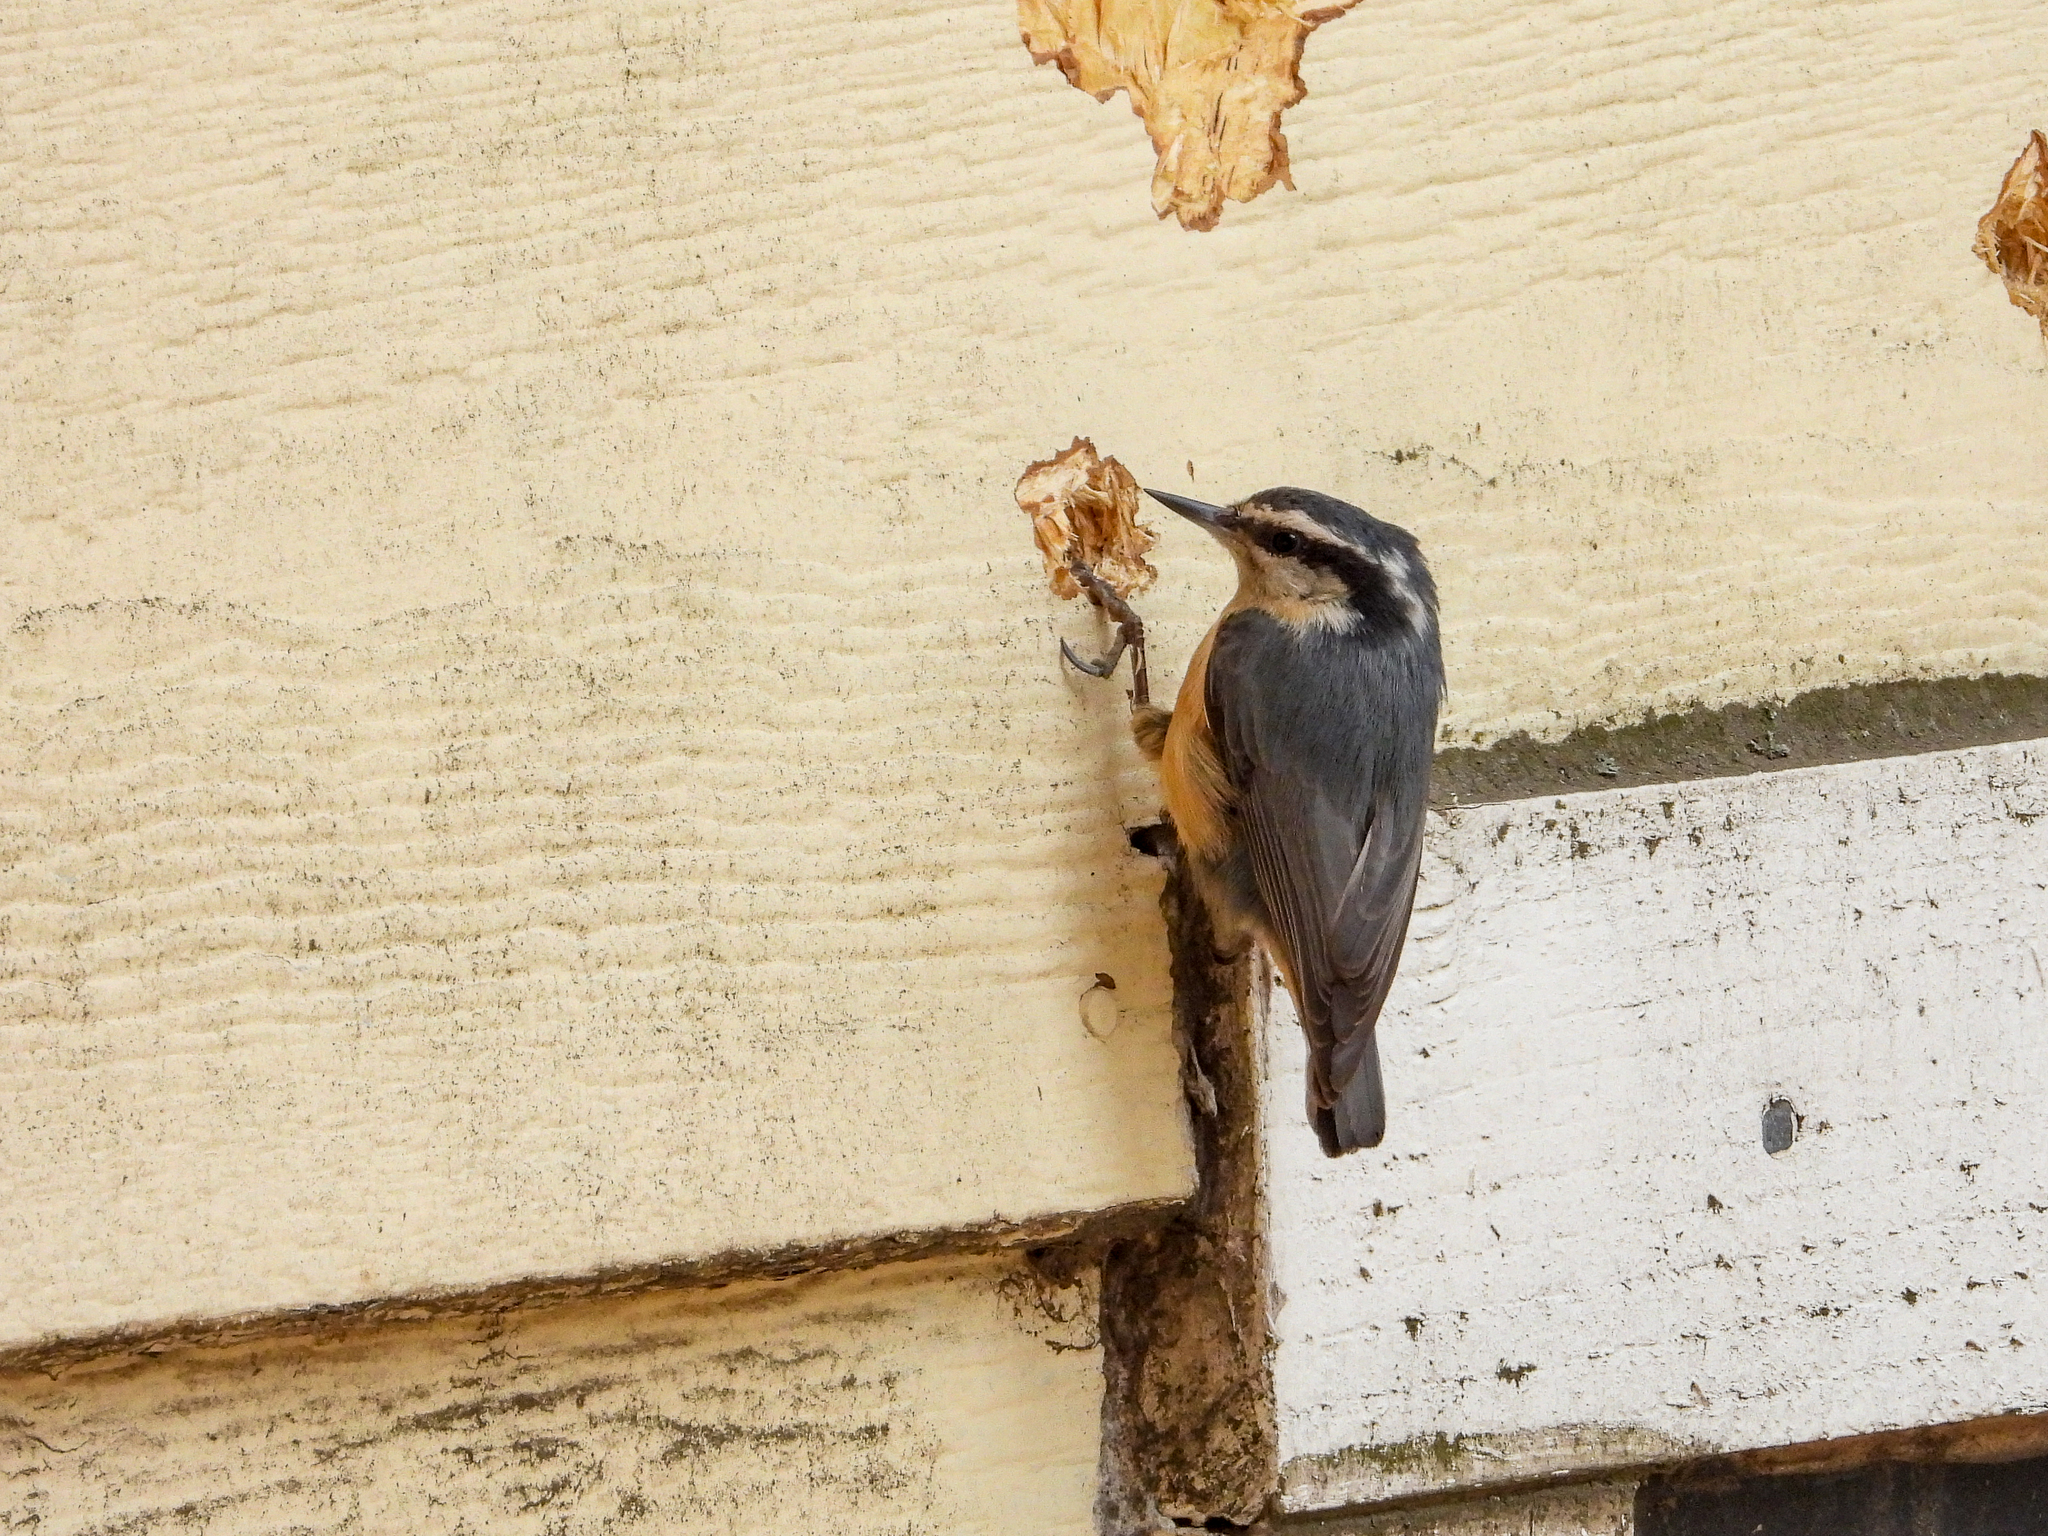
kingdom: Animalia
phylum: Chordata
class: Aves
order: Passeriformes
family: Sittidae
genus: Sitta
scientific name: Sitta canadensis
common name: Red-breasted nuthatch
